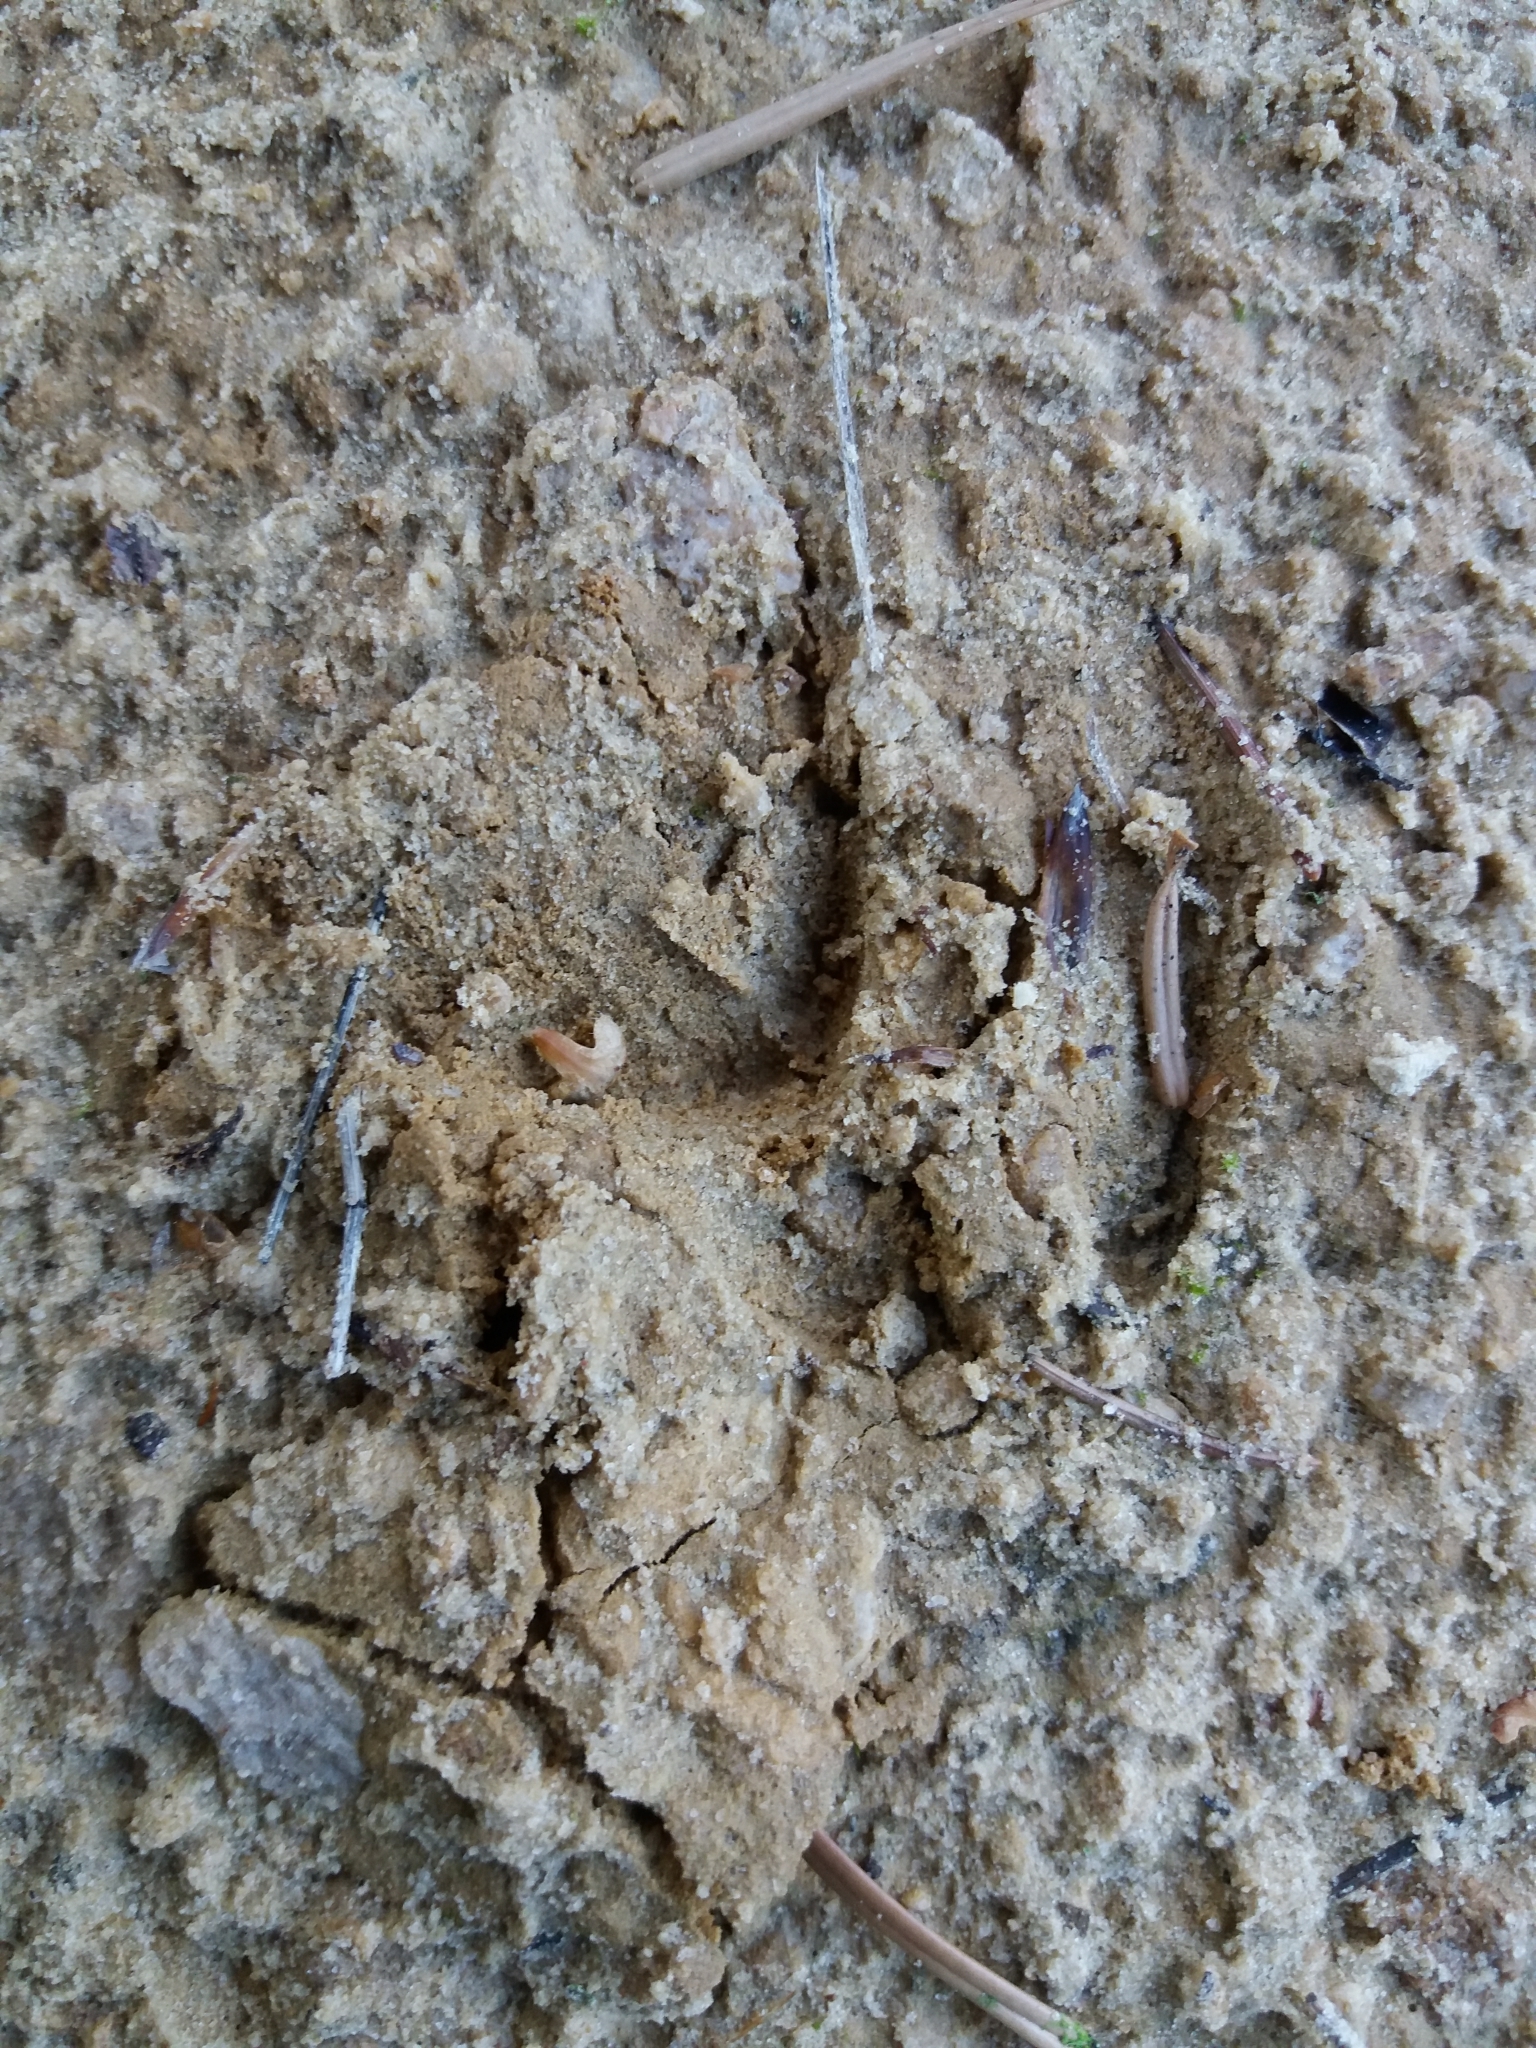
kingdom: Animalia
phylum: Chordata
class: Mammalia
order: Artiodactyla
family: Cervidae
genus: Capreolus
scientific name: Capreolus capreolus
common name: Western roe deer
